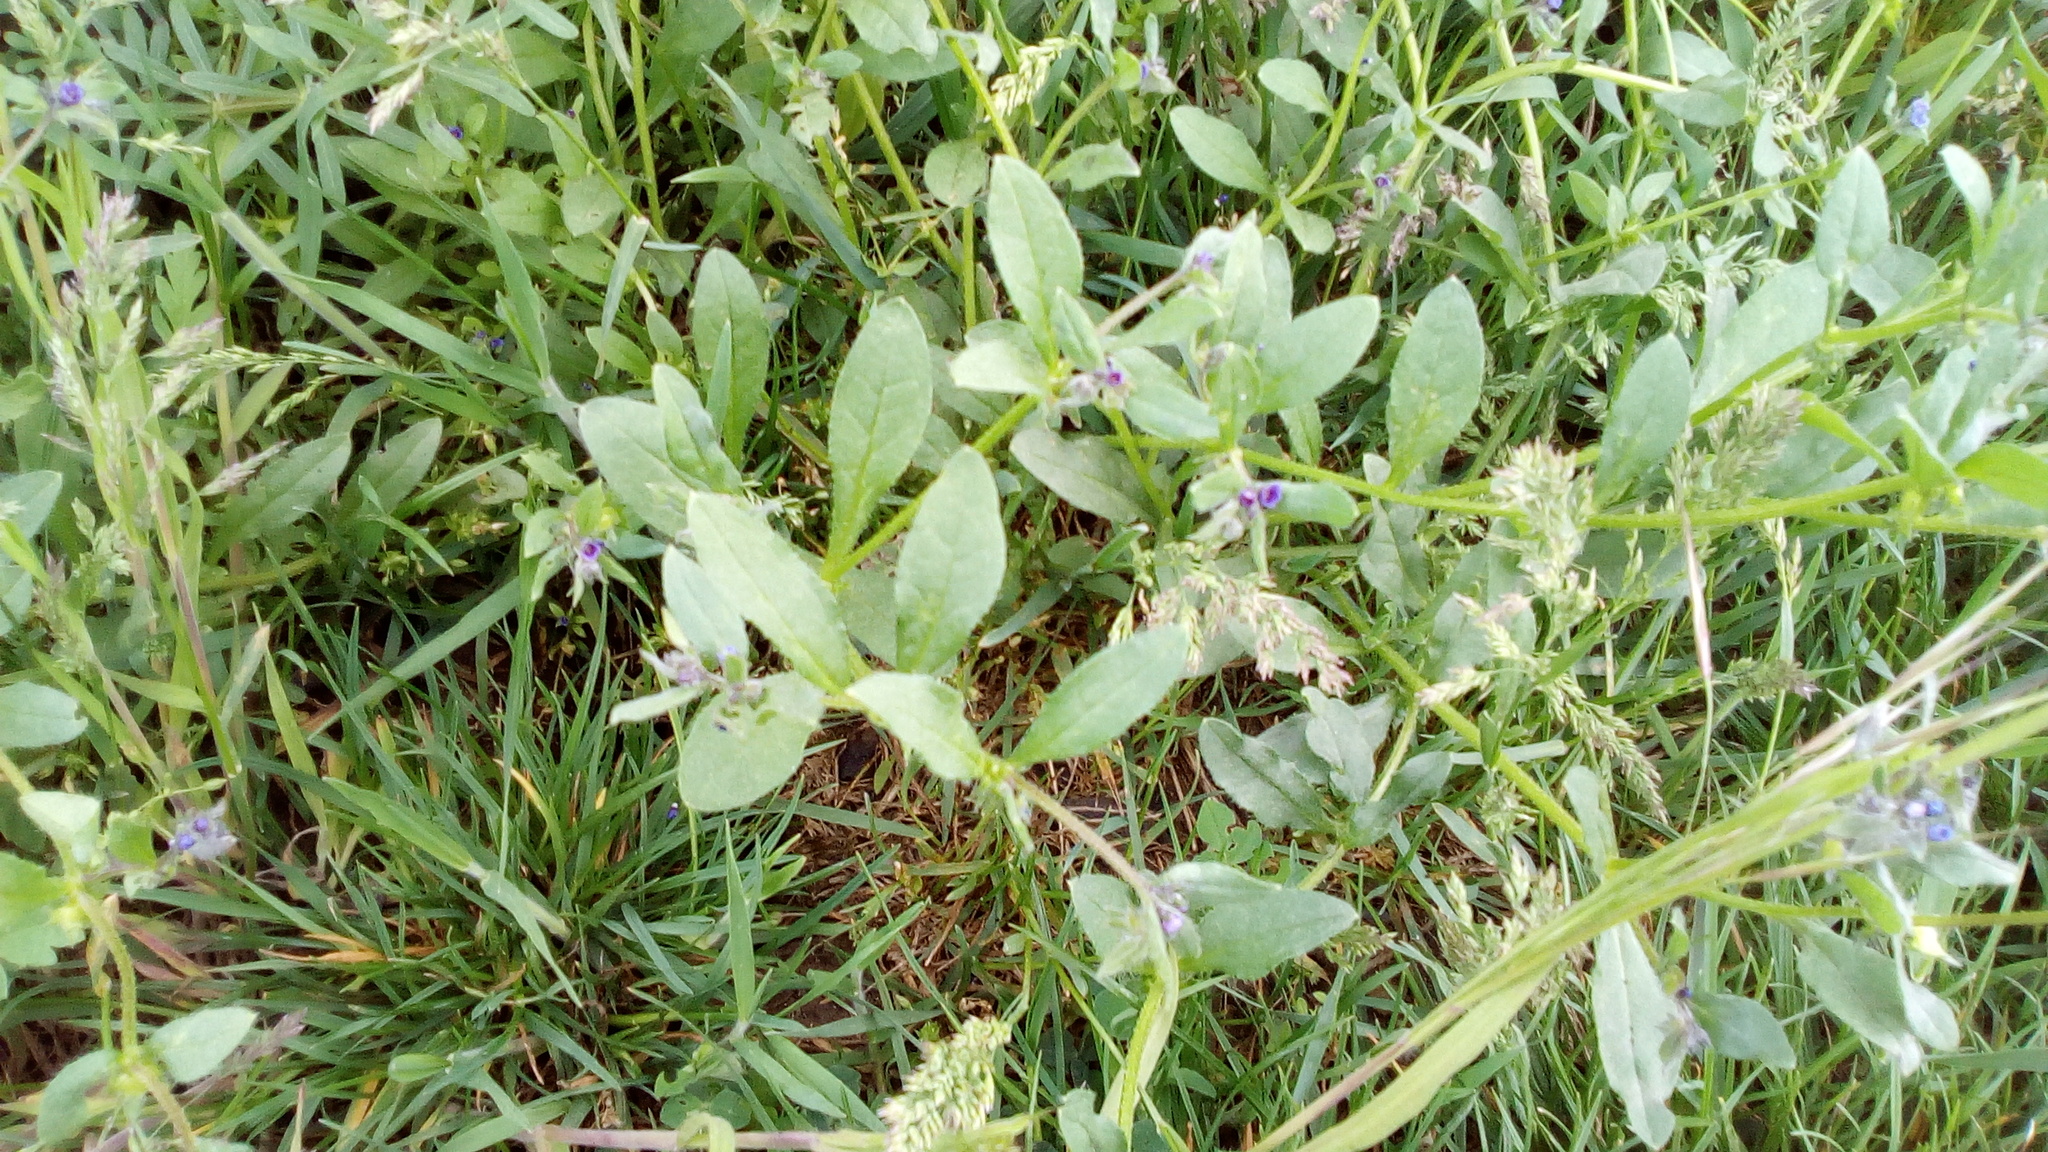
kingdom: Plantae
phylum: Tracheophyta
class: Magnoliopsida
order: Boraginales
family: Boraginaceae
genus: Asperugo
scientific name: Asperugo procumbens
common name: Madwort
